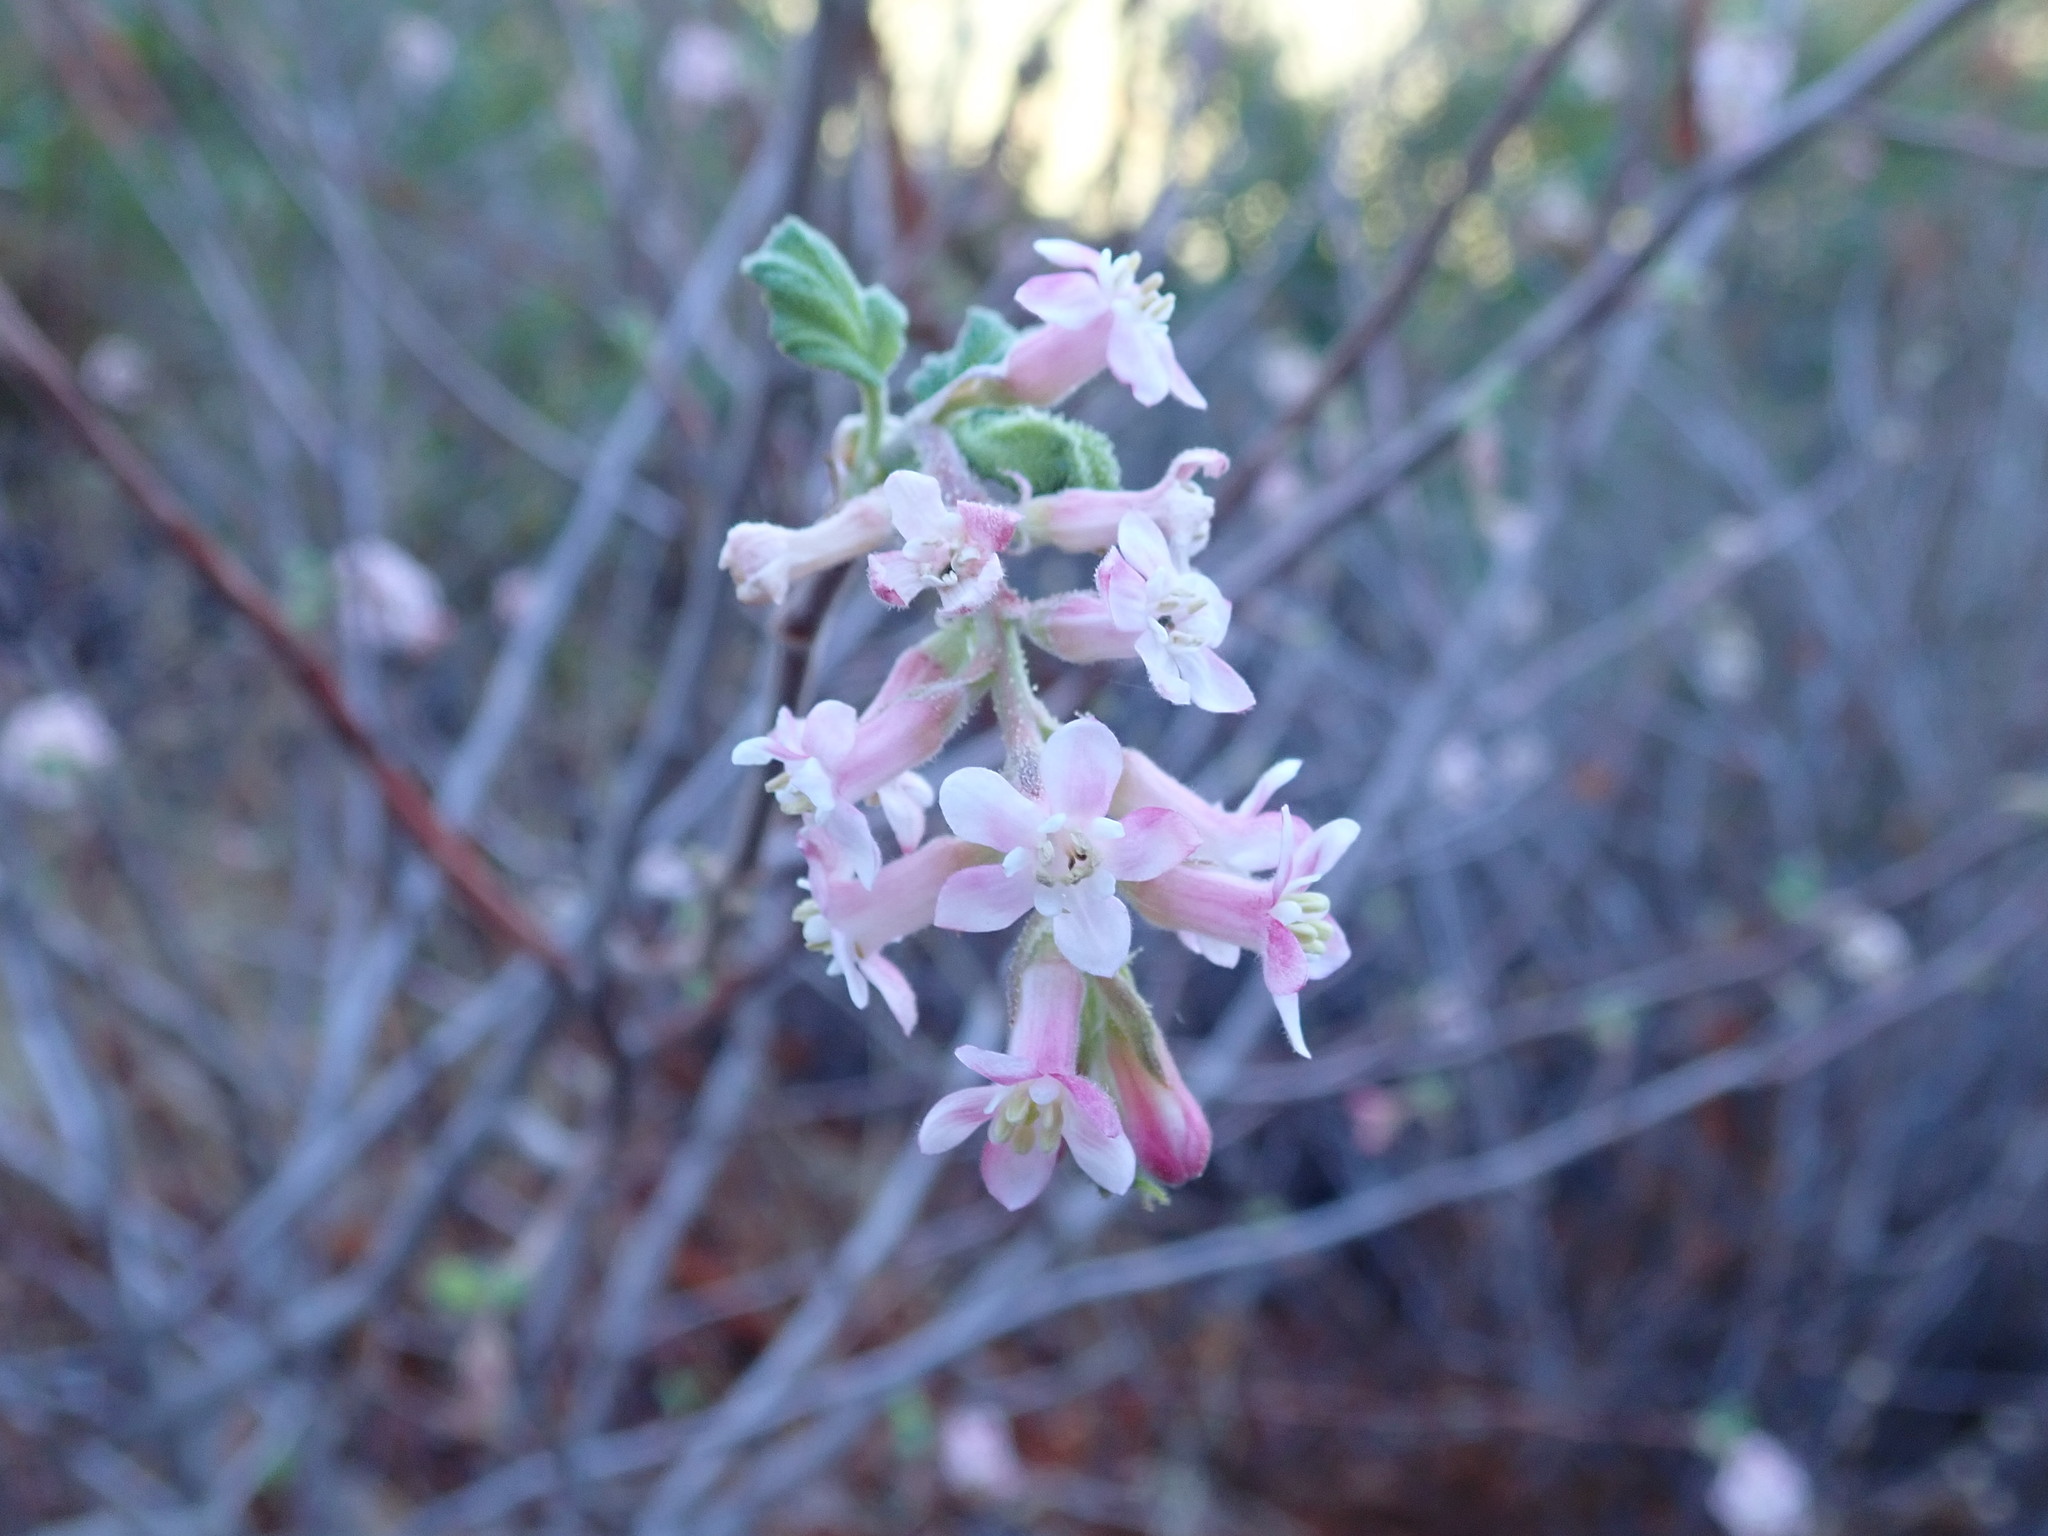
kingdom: Plantae
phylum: Tracheophyta
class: Magnoliopsida
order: Saxifragales
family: Grossulariaceae
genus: Ribes
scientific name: Ribes malvaceum
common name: Chaparral currant
